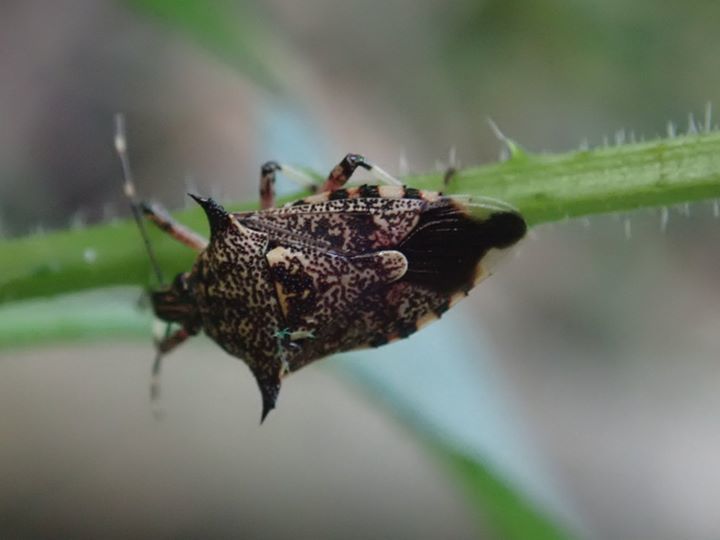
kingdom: Animalia
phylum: Arthropoda
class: Insecta
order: Hemiptera
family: Pentatomidae
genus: Eocanthecoma
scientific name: Eocanthecoma furcellata
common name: Stink bug
